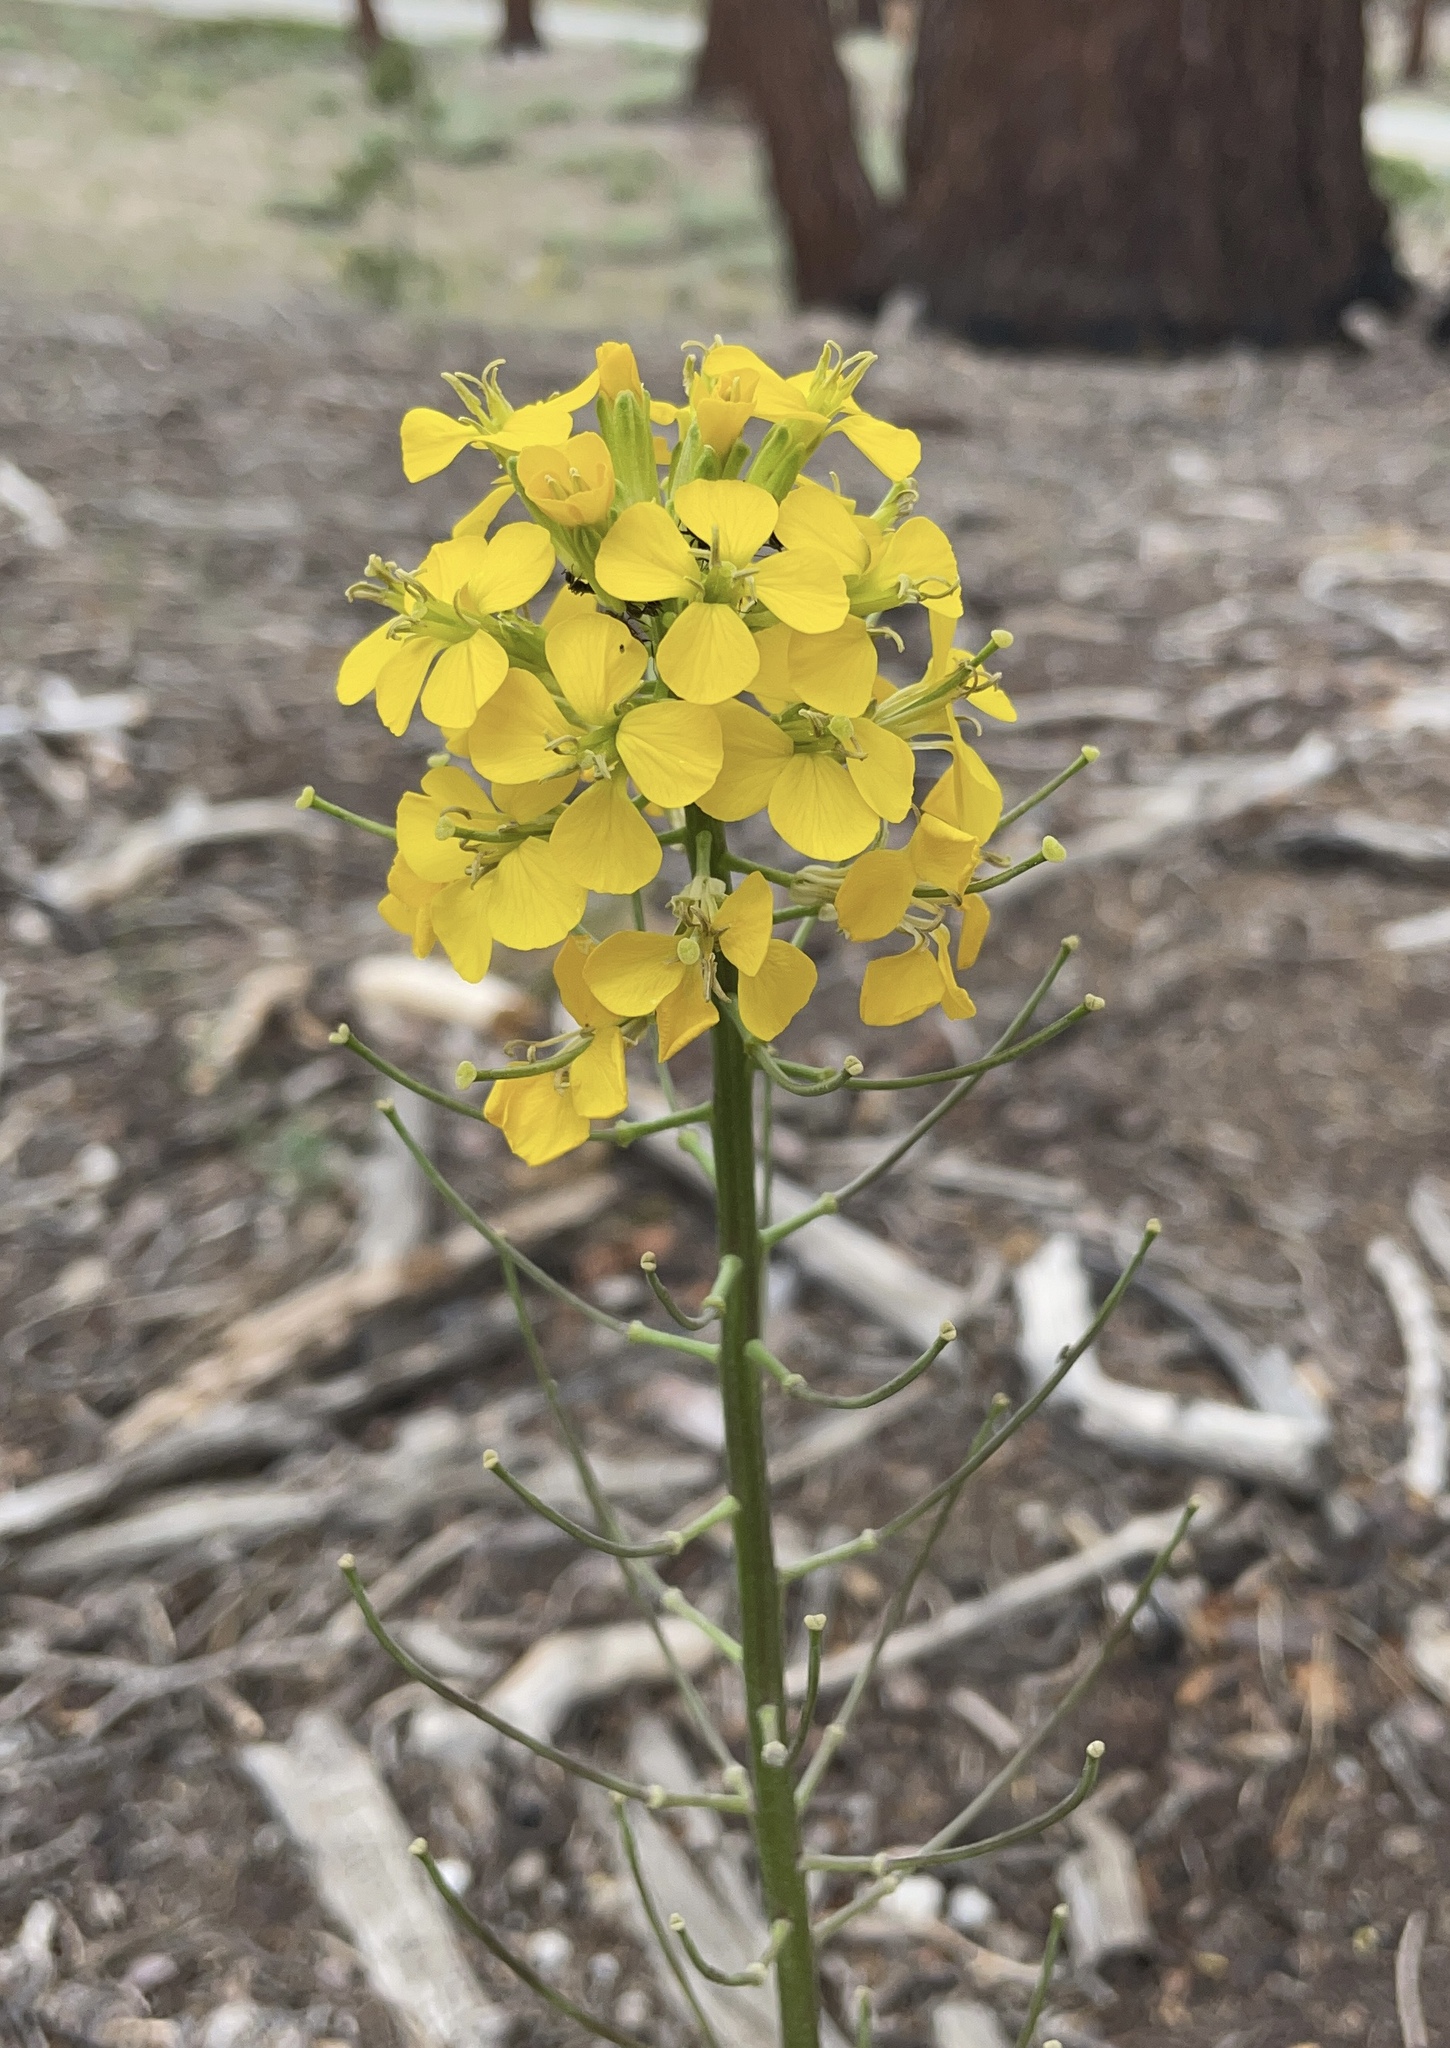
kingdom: Plantae
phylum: Tracheophyta
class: Magnoliopsida
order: Brassicales
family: Brassicaceae
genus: Erysimum
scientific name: Erysimum capitatum
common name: Western wallflower
